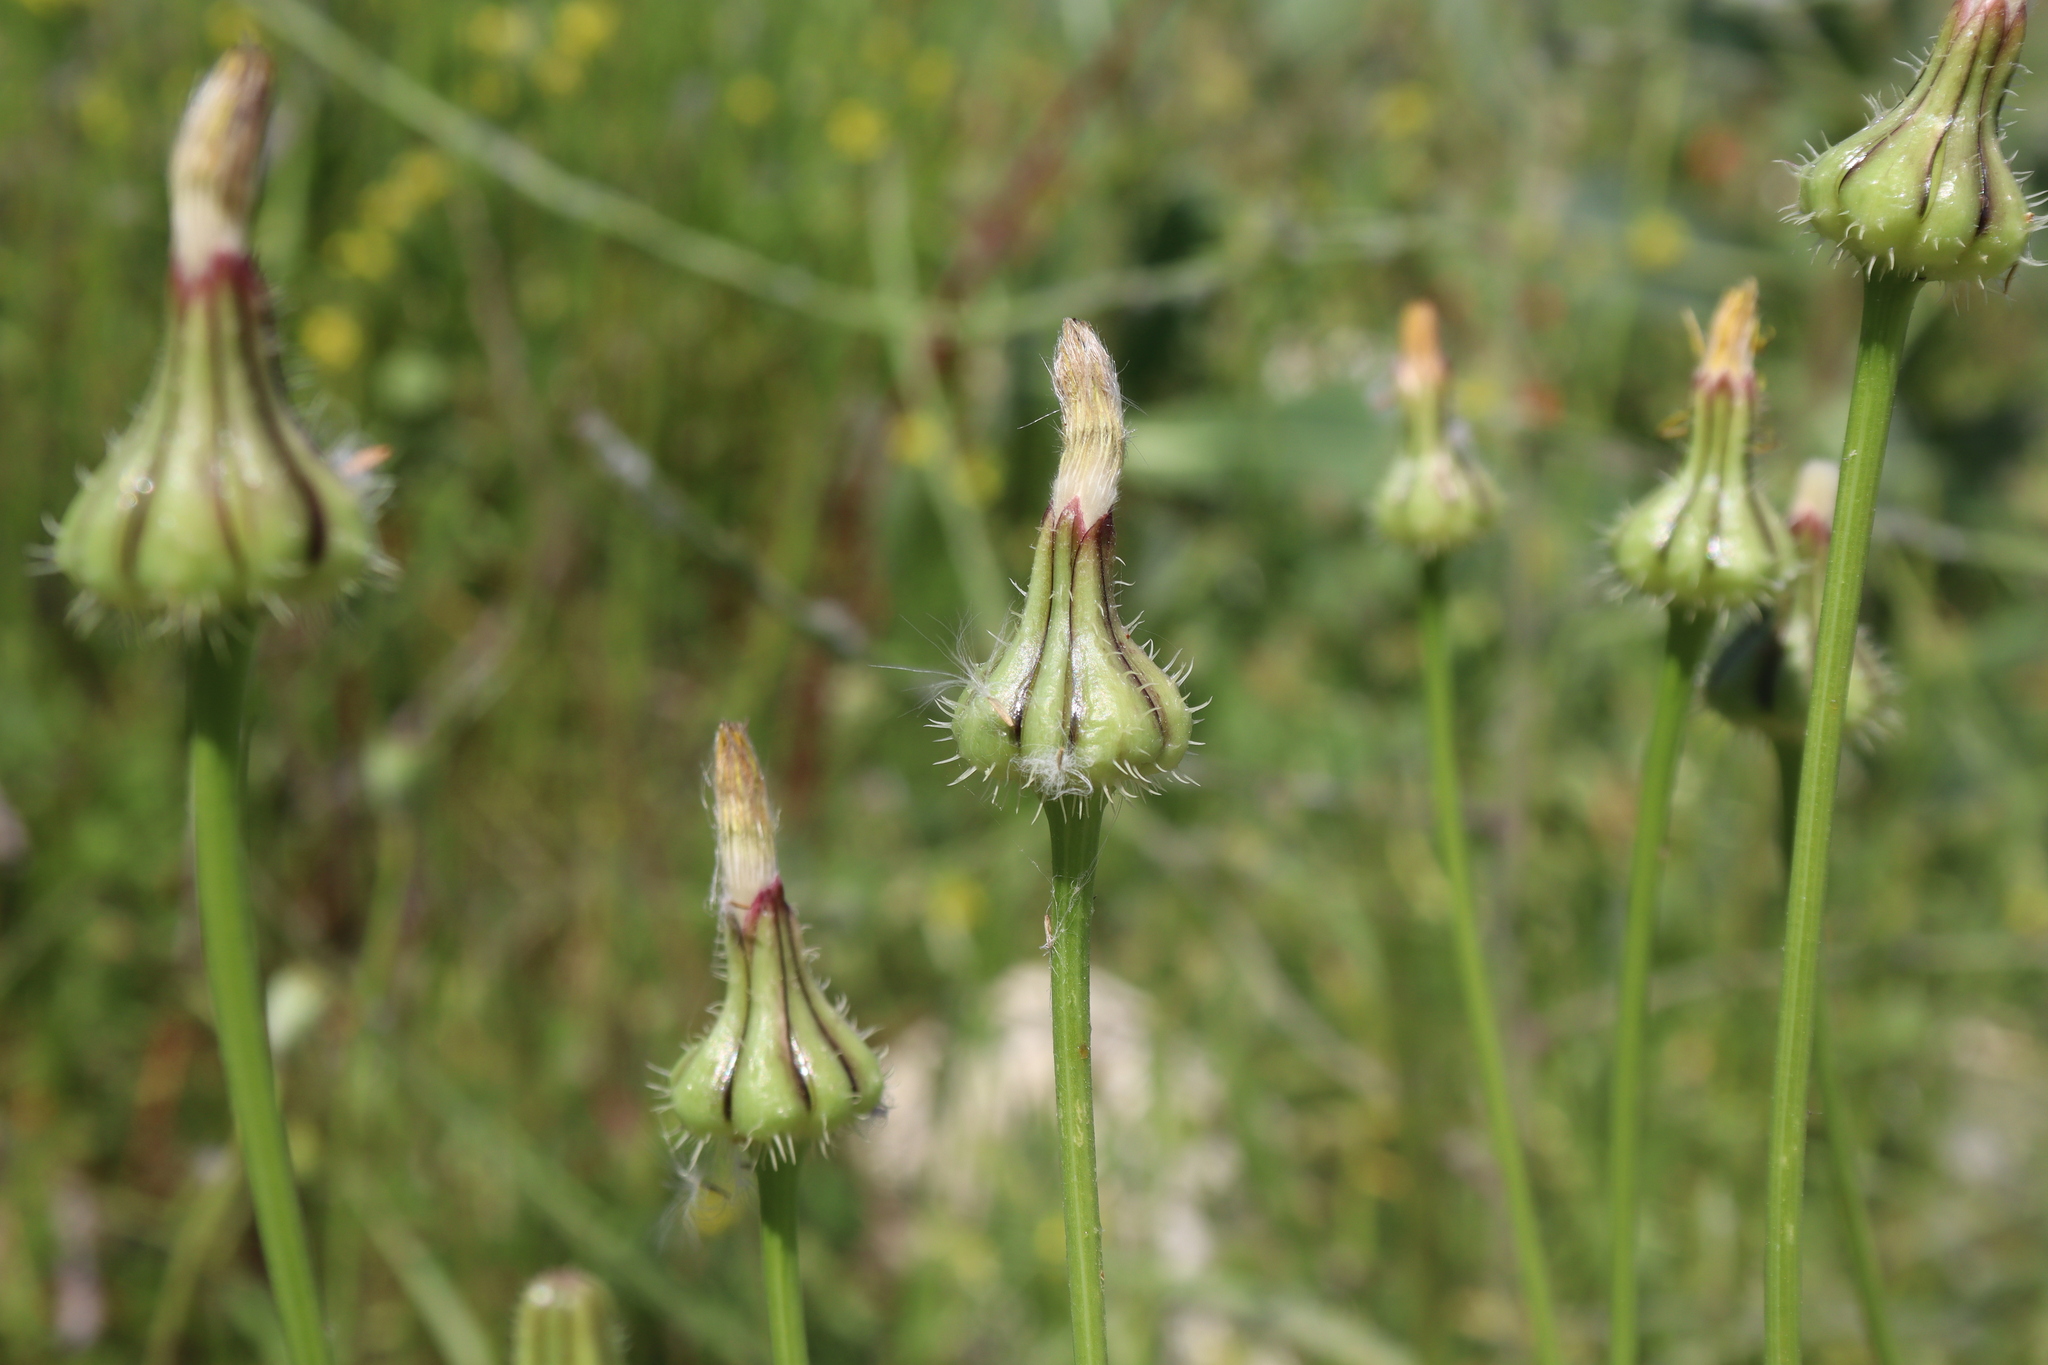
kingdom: Plantae
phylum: Tracheophyta
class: Magnoliopsida
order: Asterales
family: Asteraceae
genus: Urospermum
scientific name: Urospermum picroides
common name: False hawkbit
